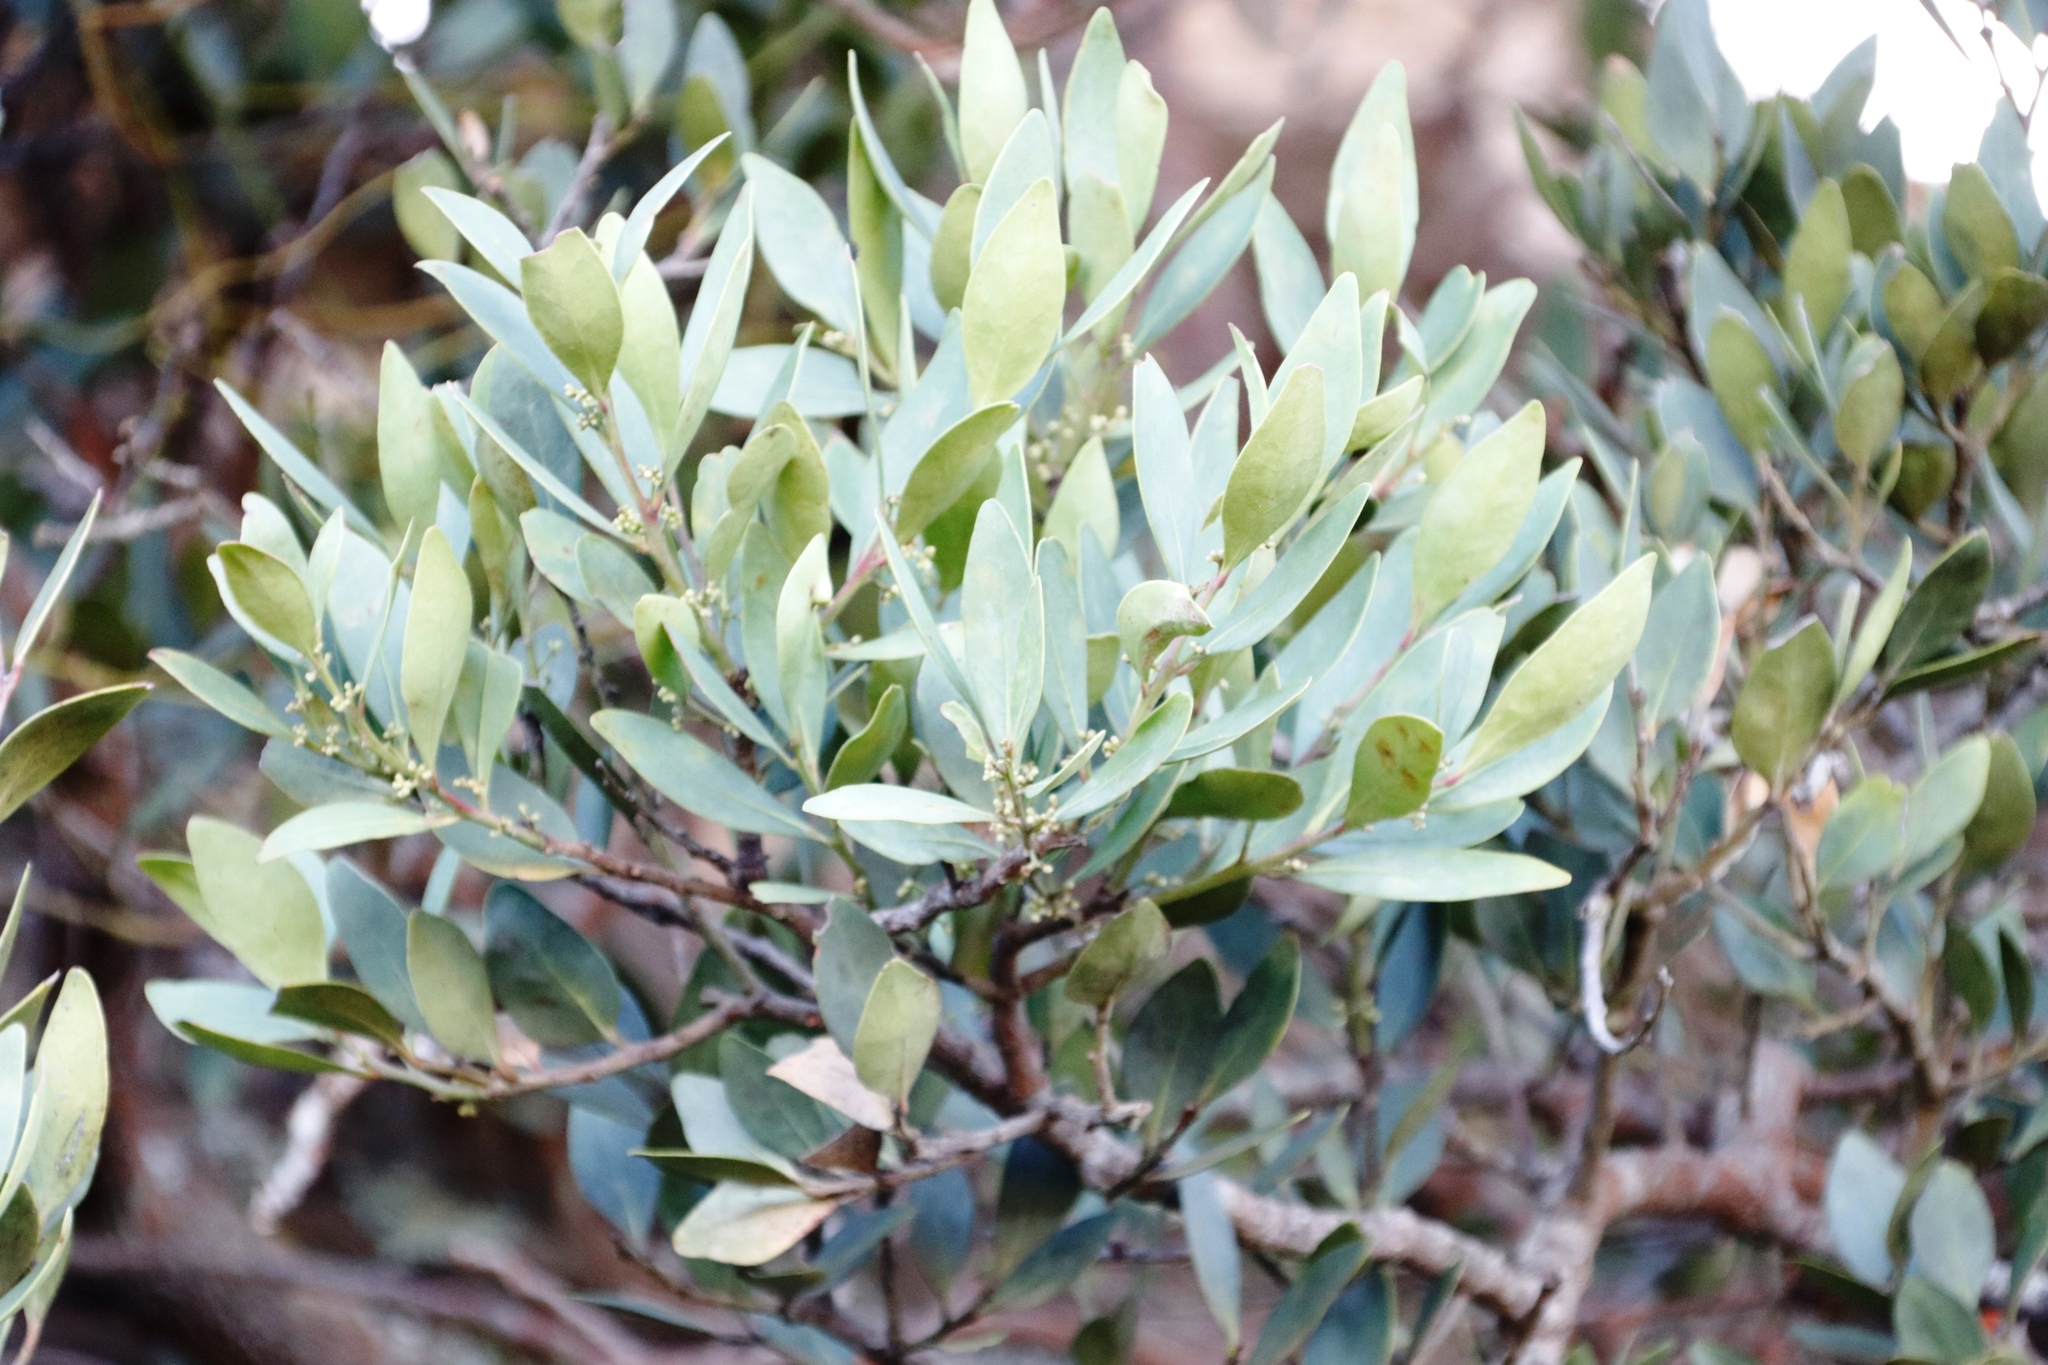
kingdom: Plantae
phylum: Tracheophyta
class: Magnoliopsida
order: Celastrales
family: Celastraceae
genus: Gymnosporia
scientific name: Gymnosporia laurina
